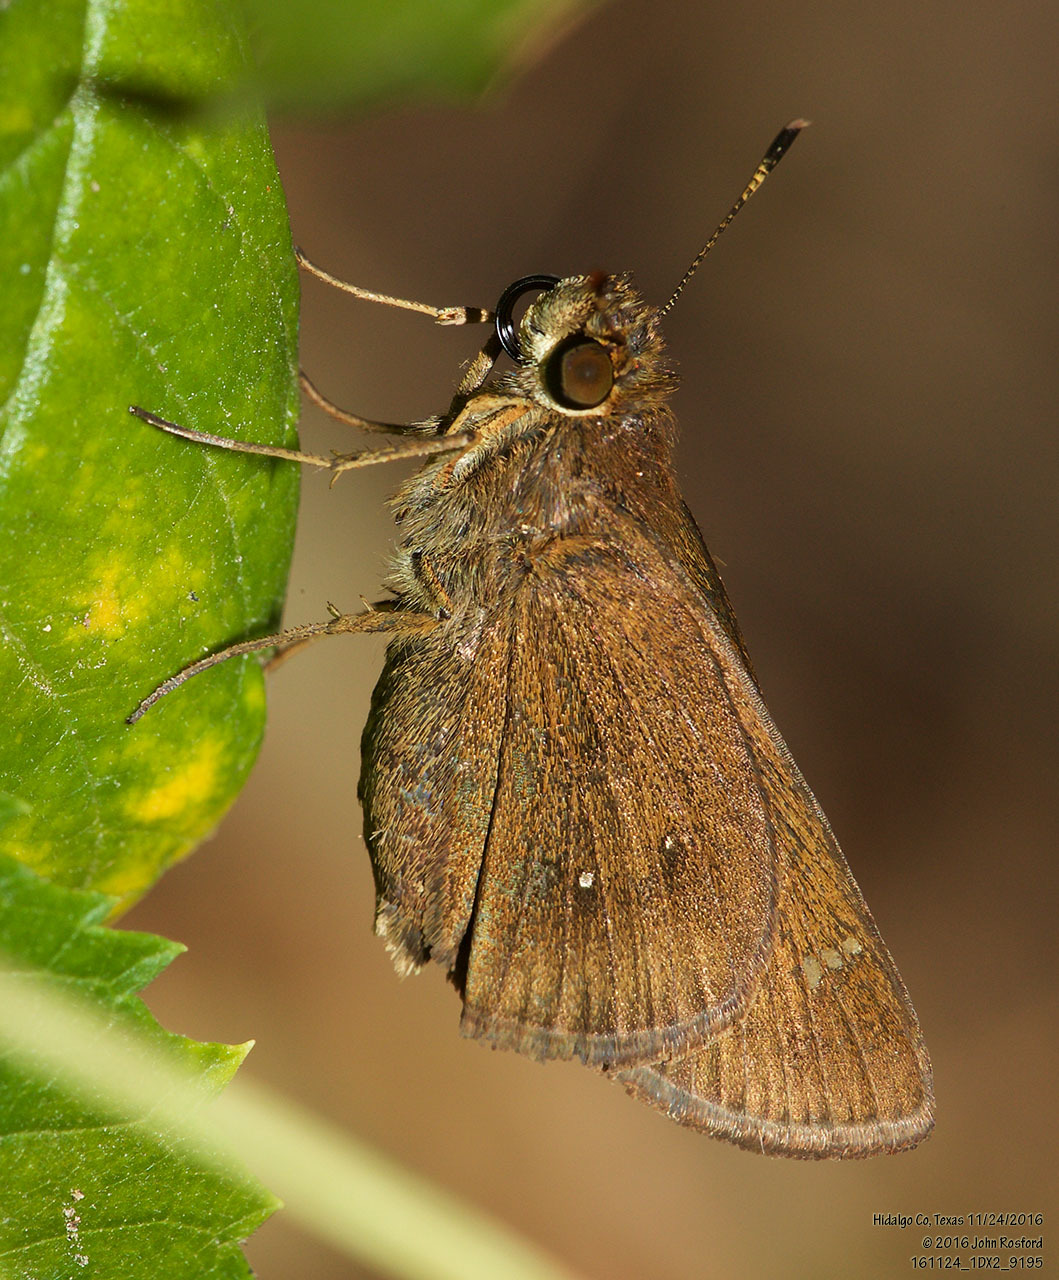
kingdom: Animalia
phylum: Arthropoda
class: Insecta
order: Lepidoptera
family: Hesperiidae
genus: Decinea
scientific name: Decinea percosius
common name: Double-dotted skipper
